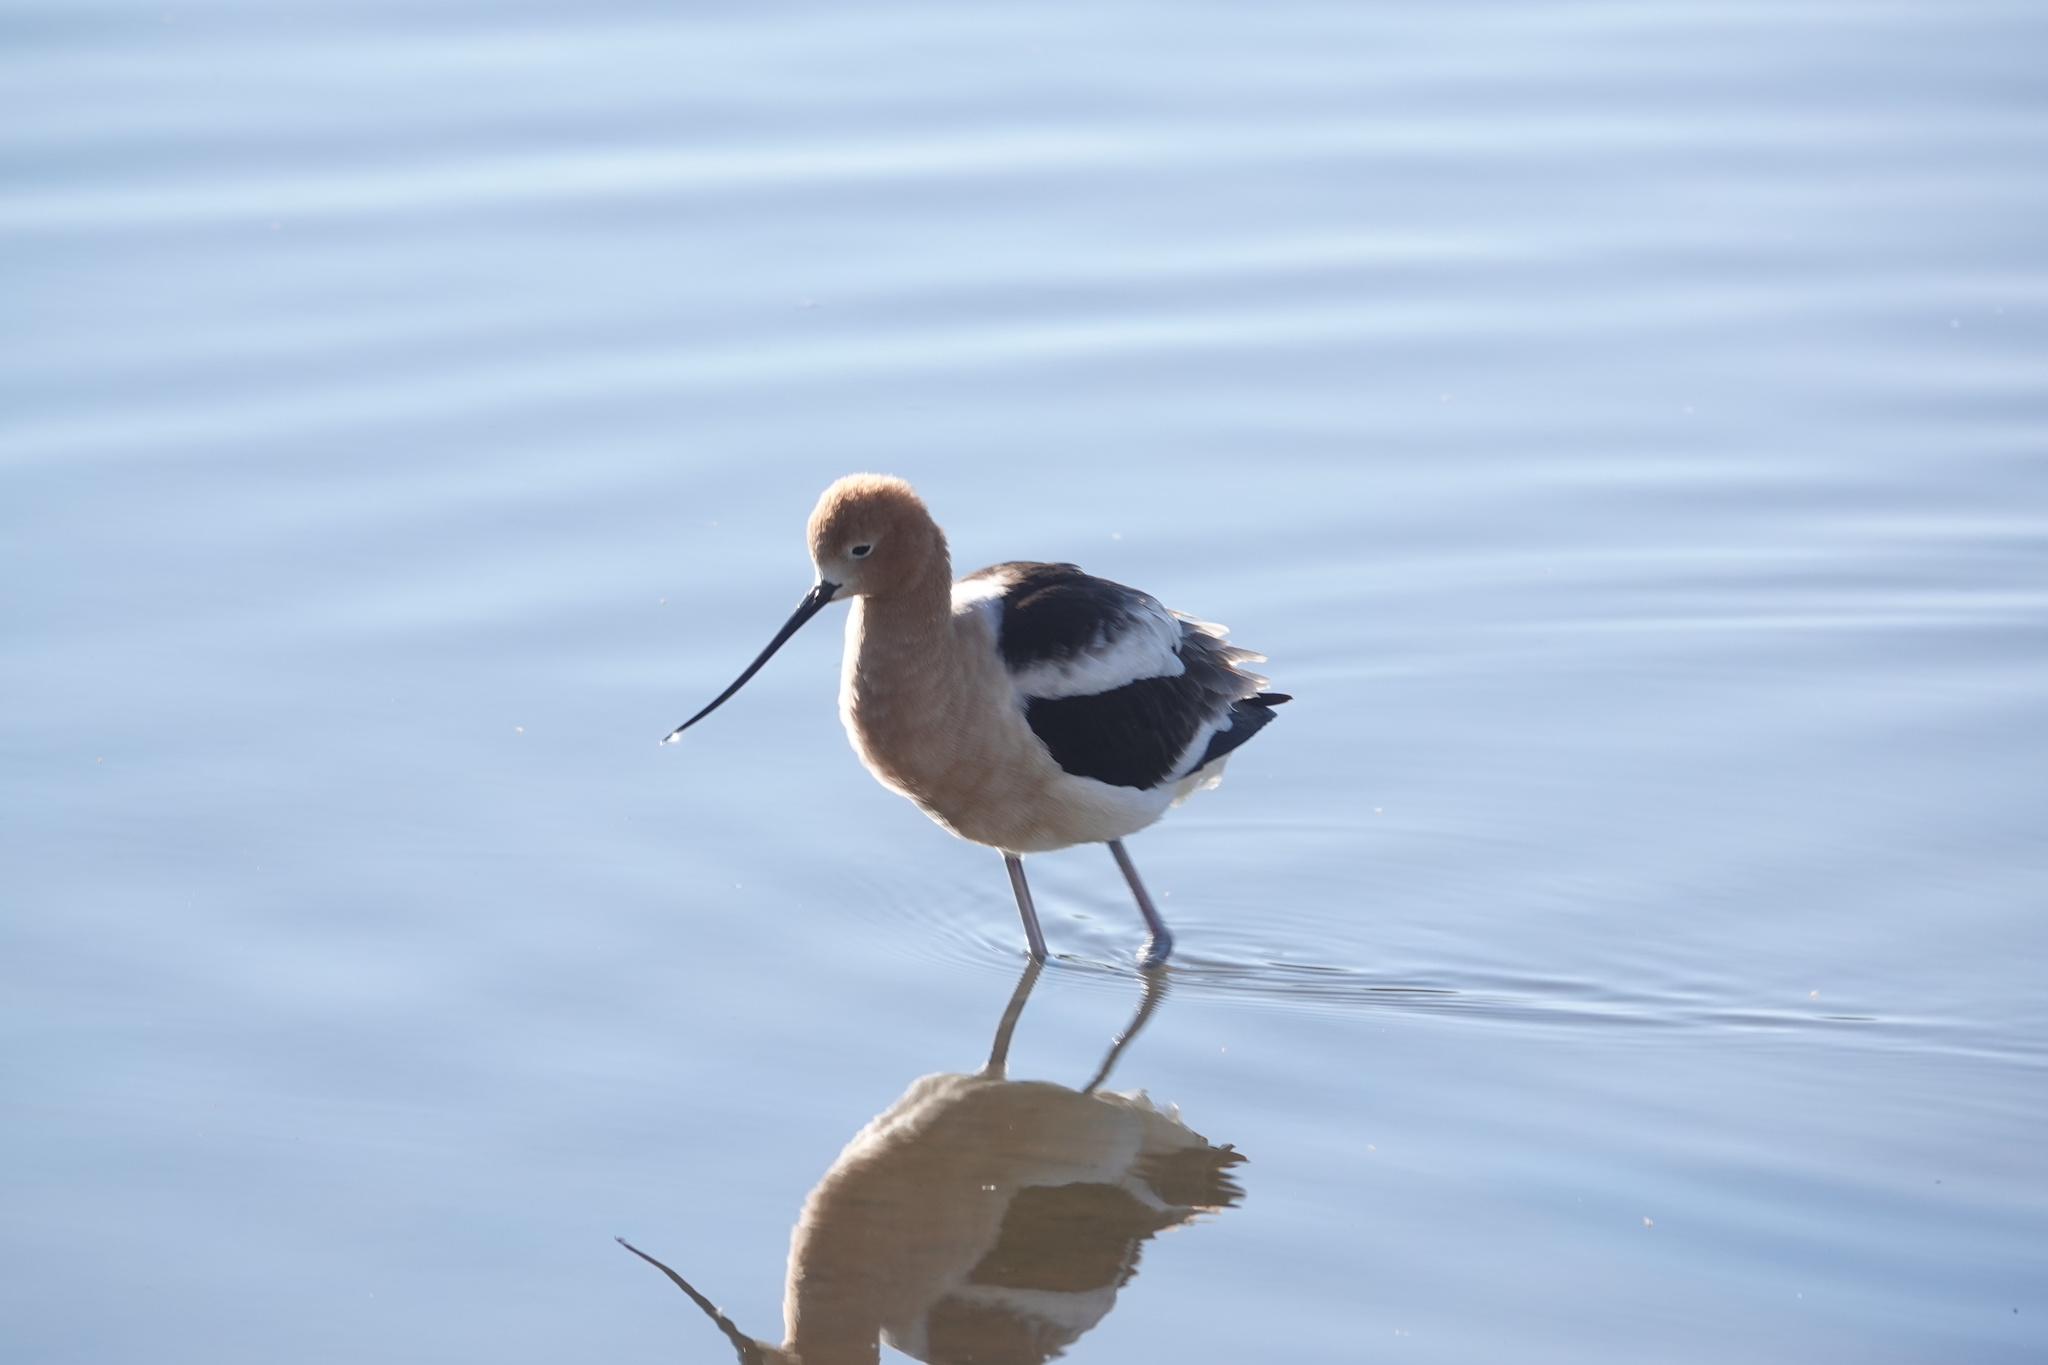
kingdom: Animalia
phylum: Chordata
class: Aves
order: Charadriiformes
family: Recurvirostridae
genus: Recurvirostra
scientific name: Recurvirostra americana
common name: American avocet
